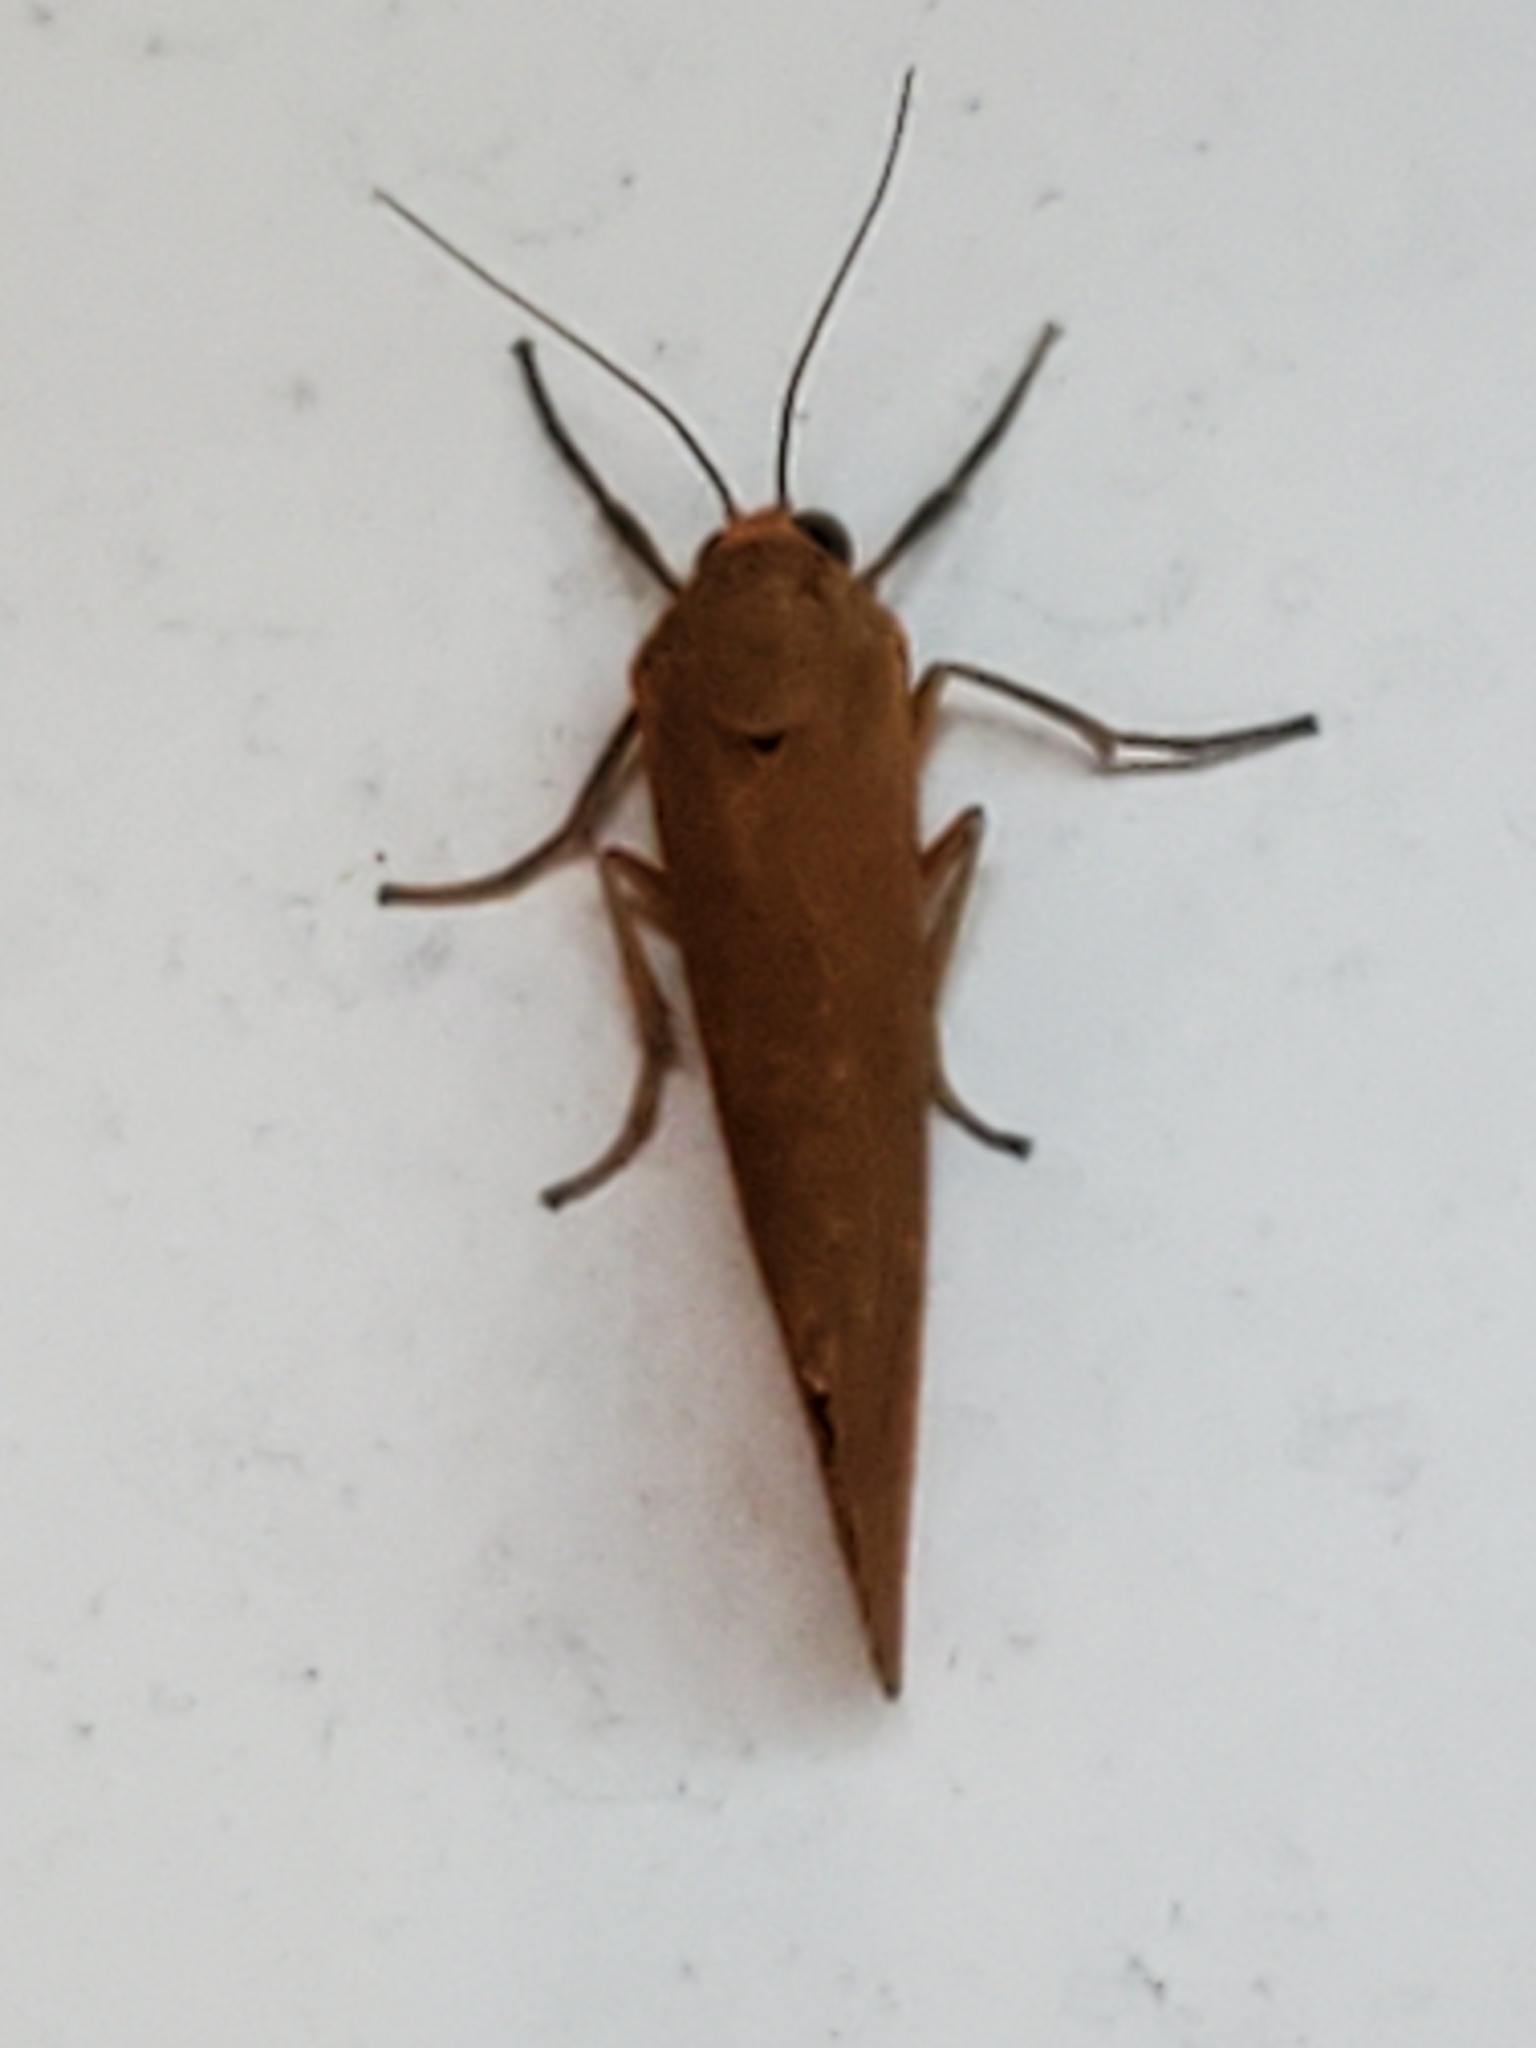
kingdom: Animalia
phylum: Arthropoda
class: Insecta
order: Lepidoptera
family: Erebidae
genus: Virbia
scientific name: Virbia aurantiaca
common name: Orange virbia moth
